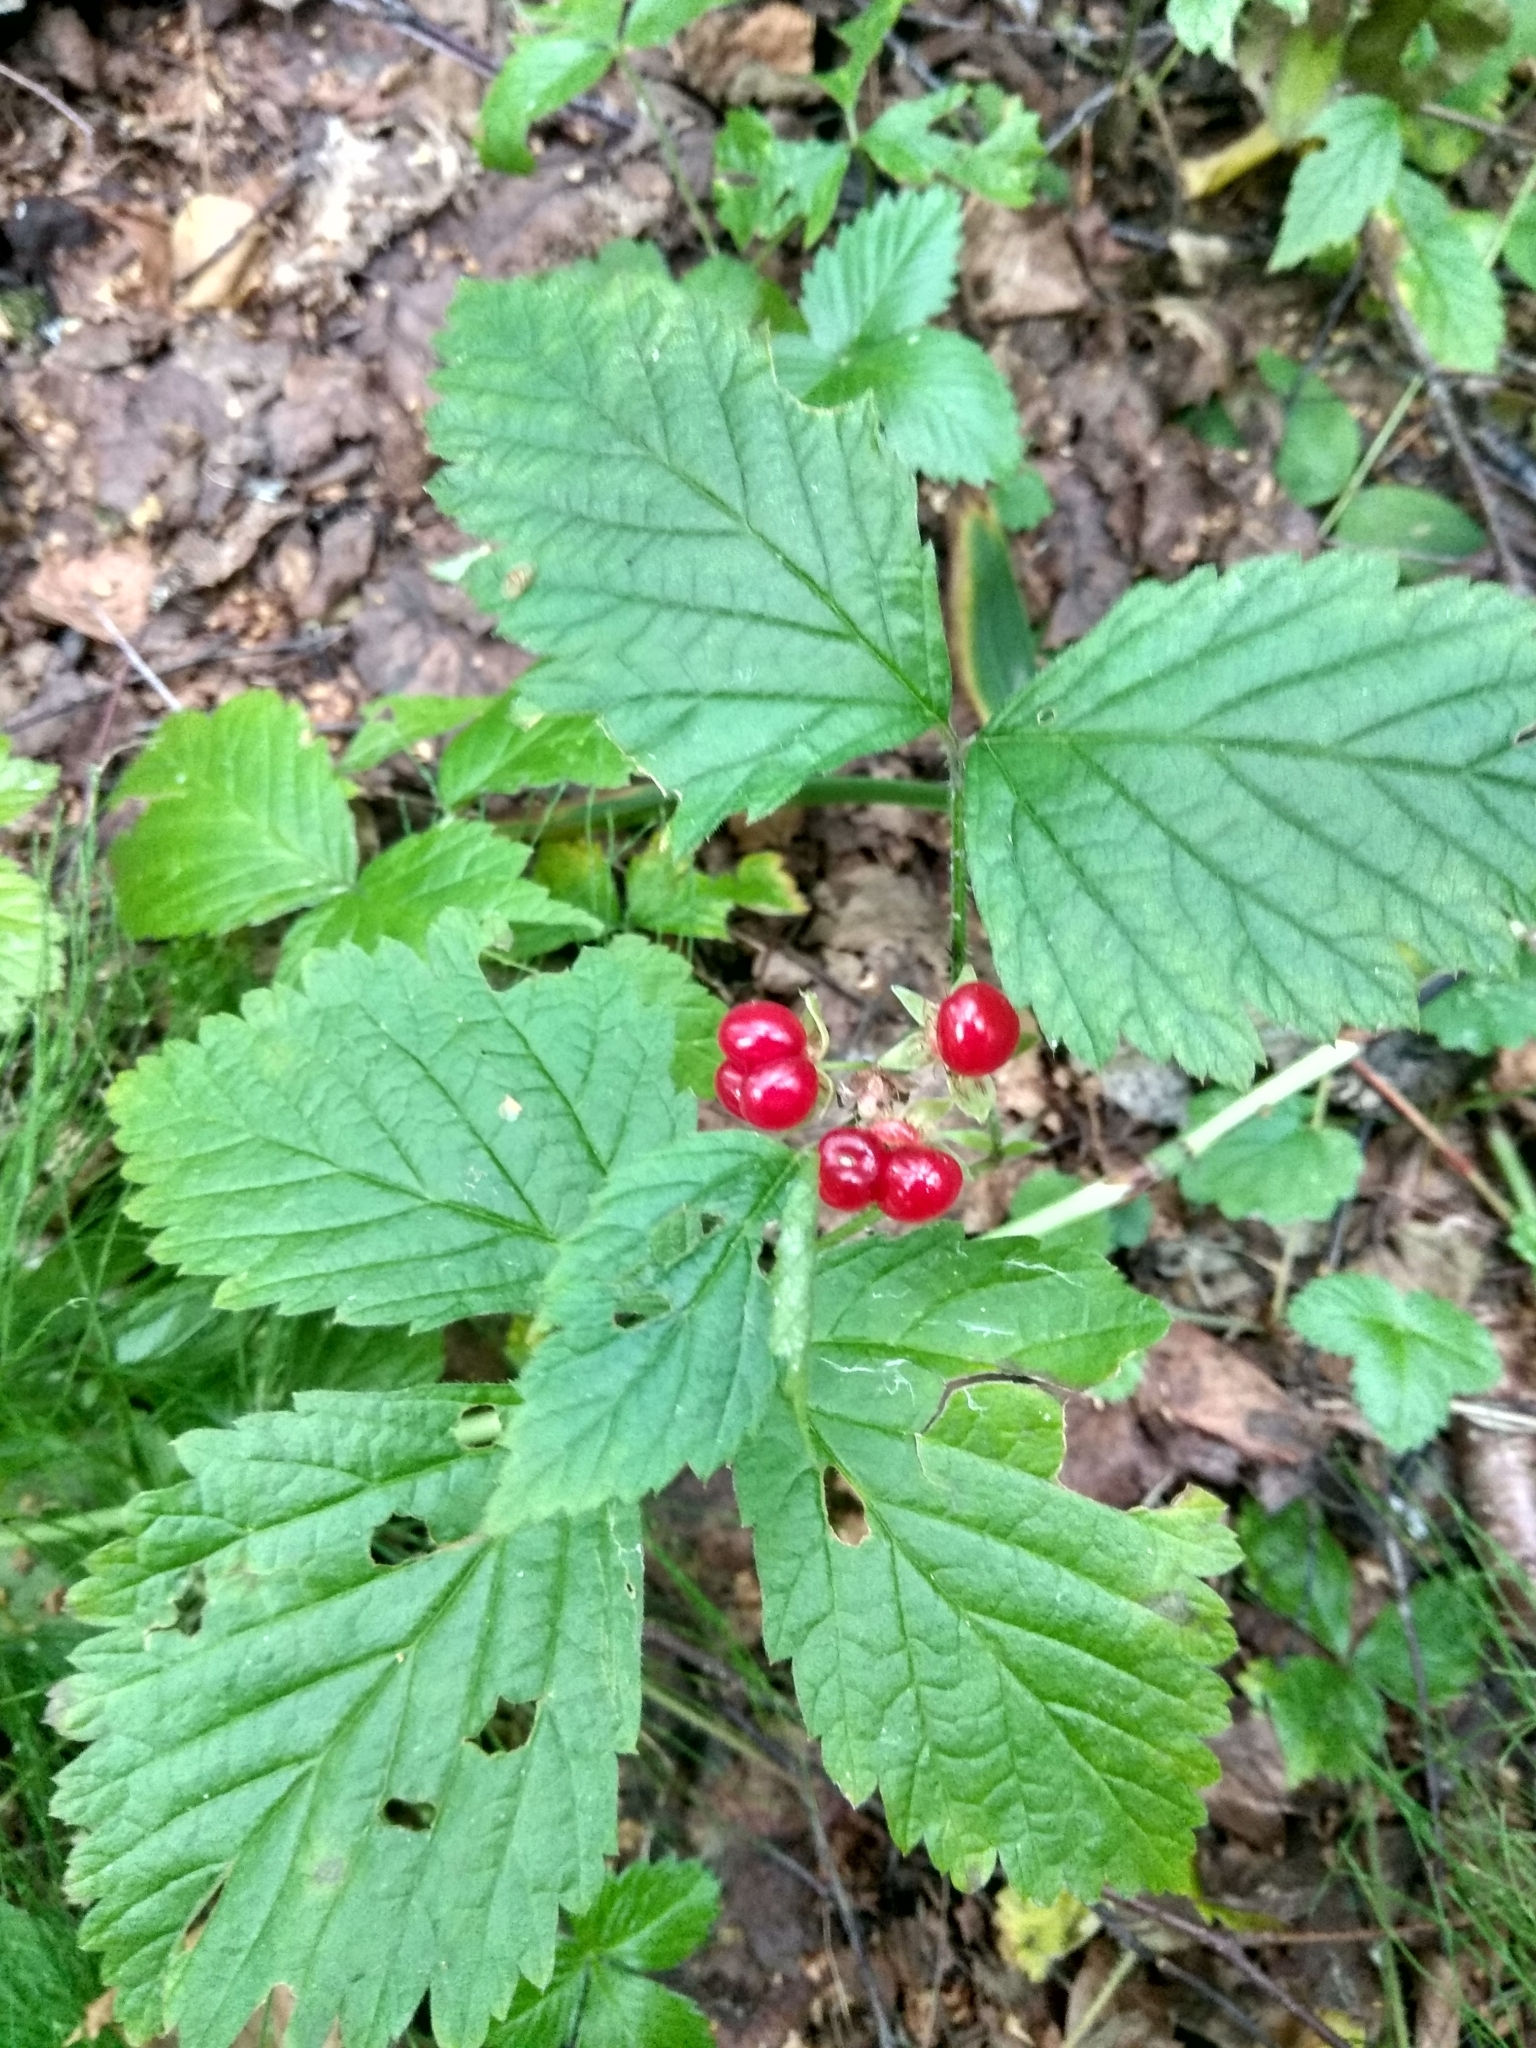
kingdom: Plantae
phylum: Tracheophyta
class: Magnoliopsida
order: Rosales
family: Rosaceae
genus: Rubus
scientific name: Rubus saxatilis
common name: Stone bramble
